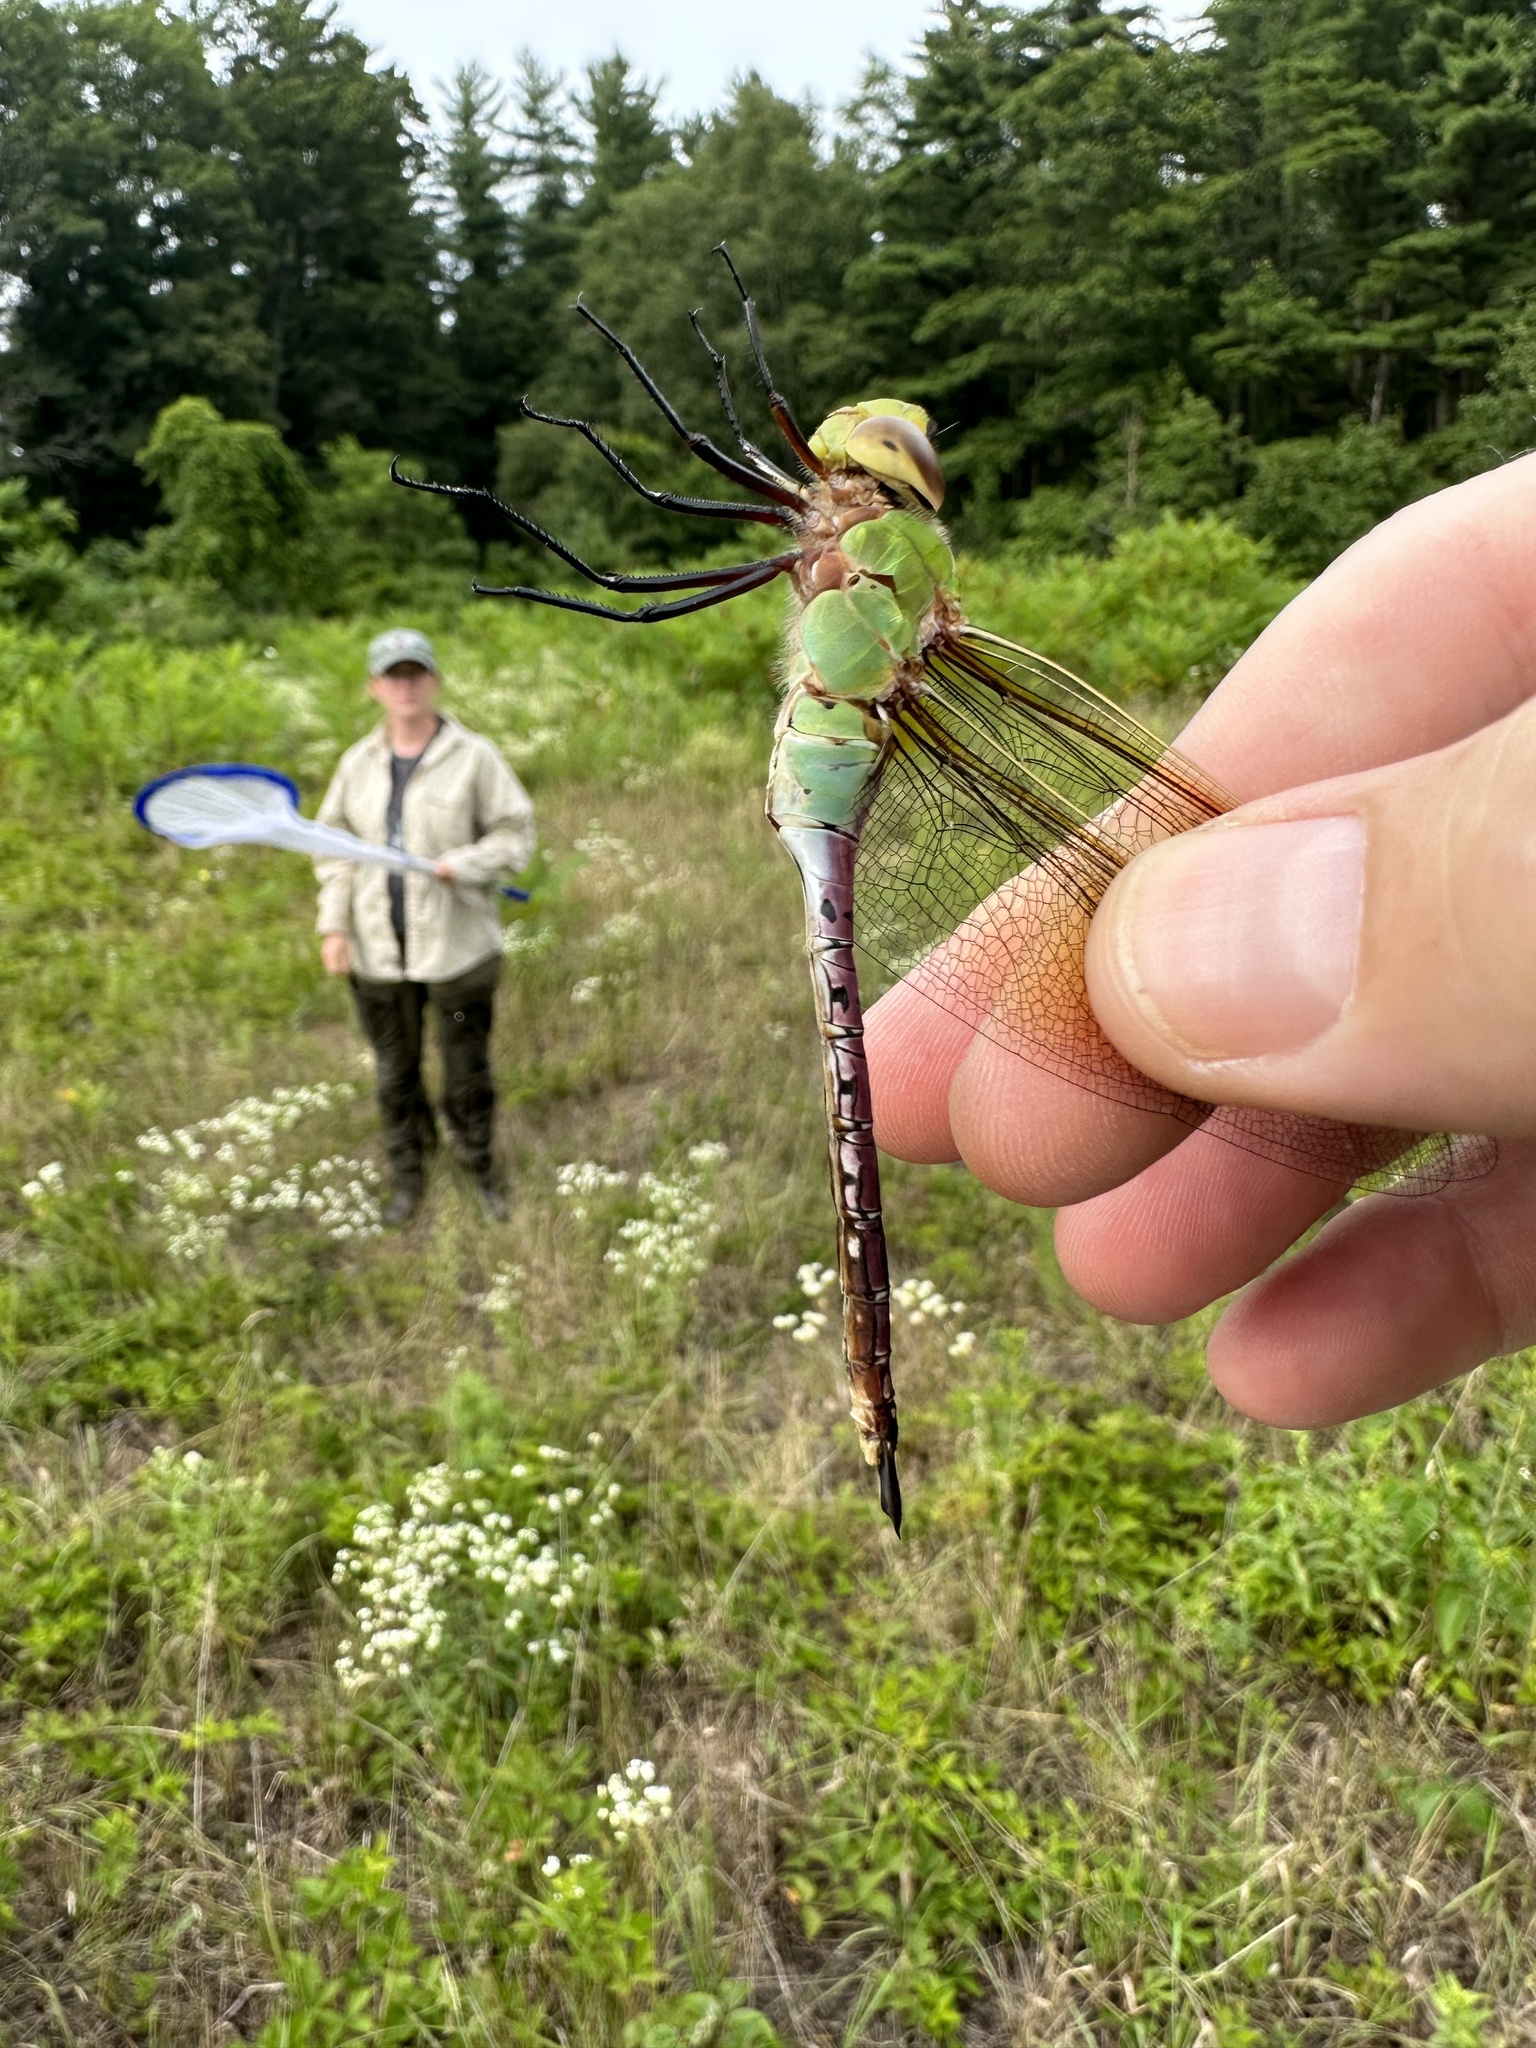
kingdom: Animalia
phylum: Arthropoda
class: Insecta
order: Odonata
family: Aeshnidae
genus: Anax
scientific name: Anax junius
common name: Common green darner
